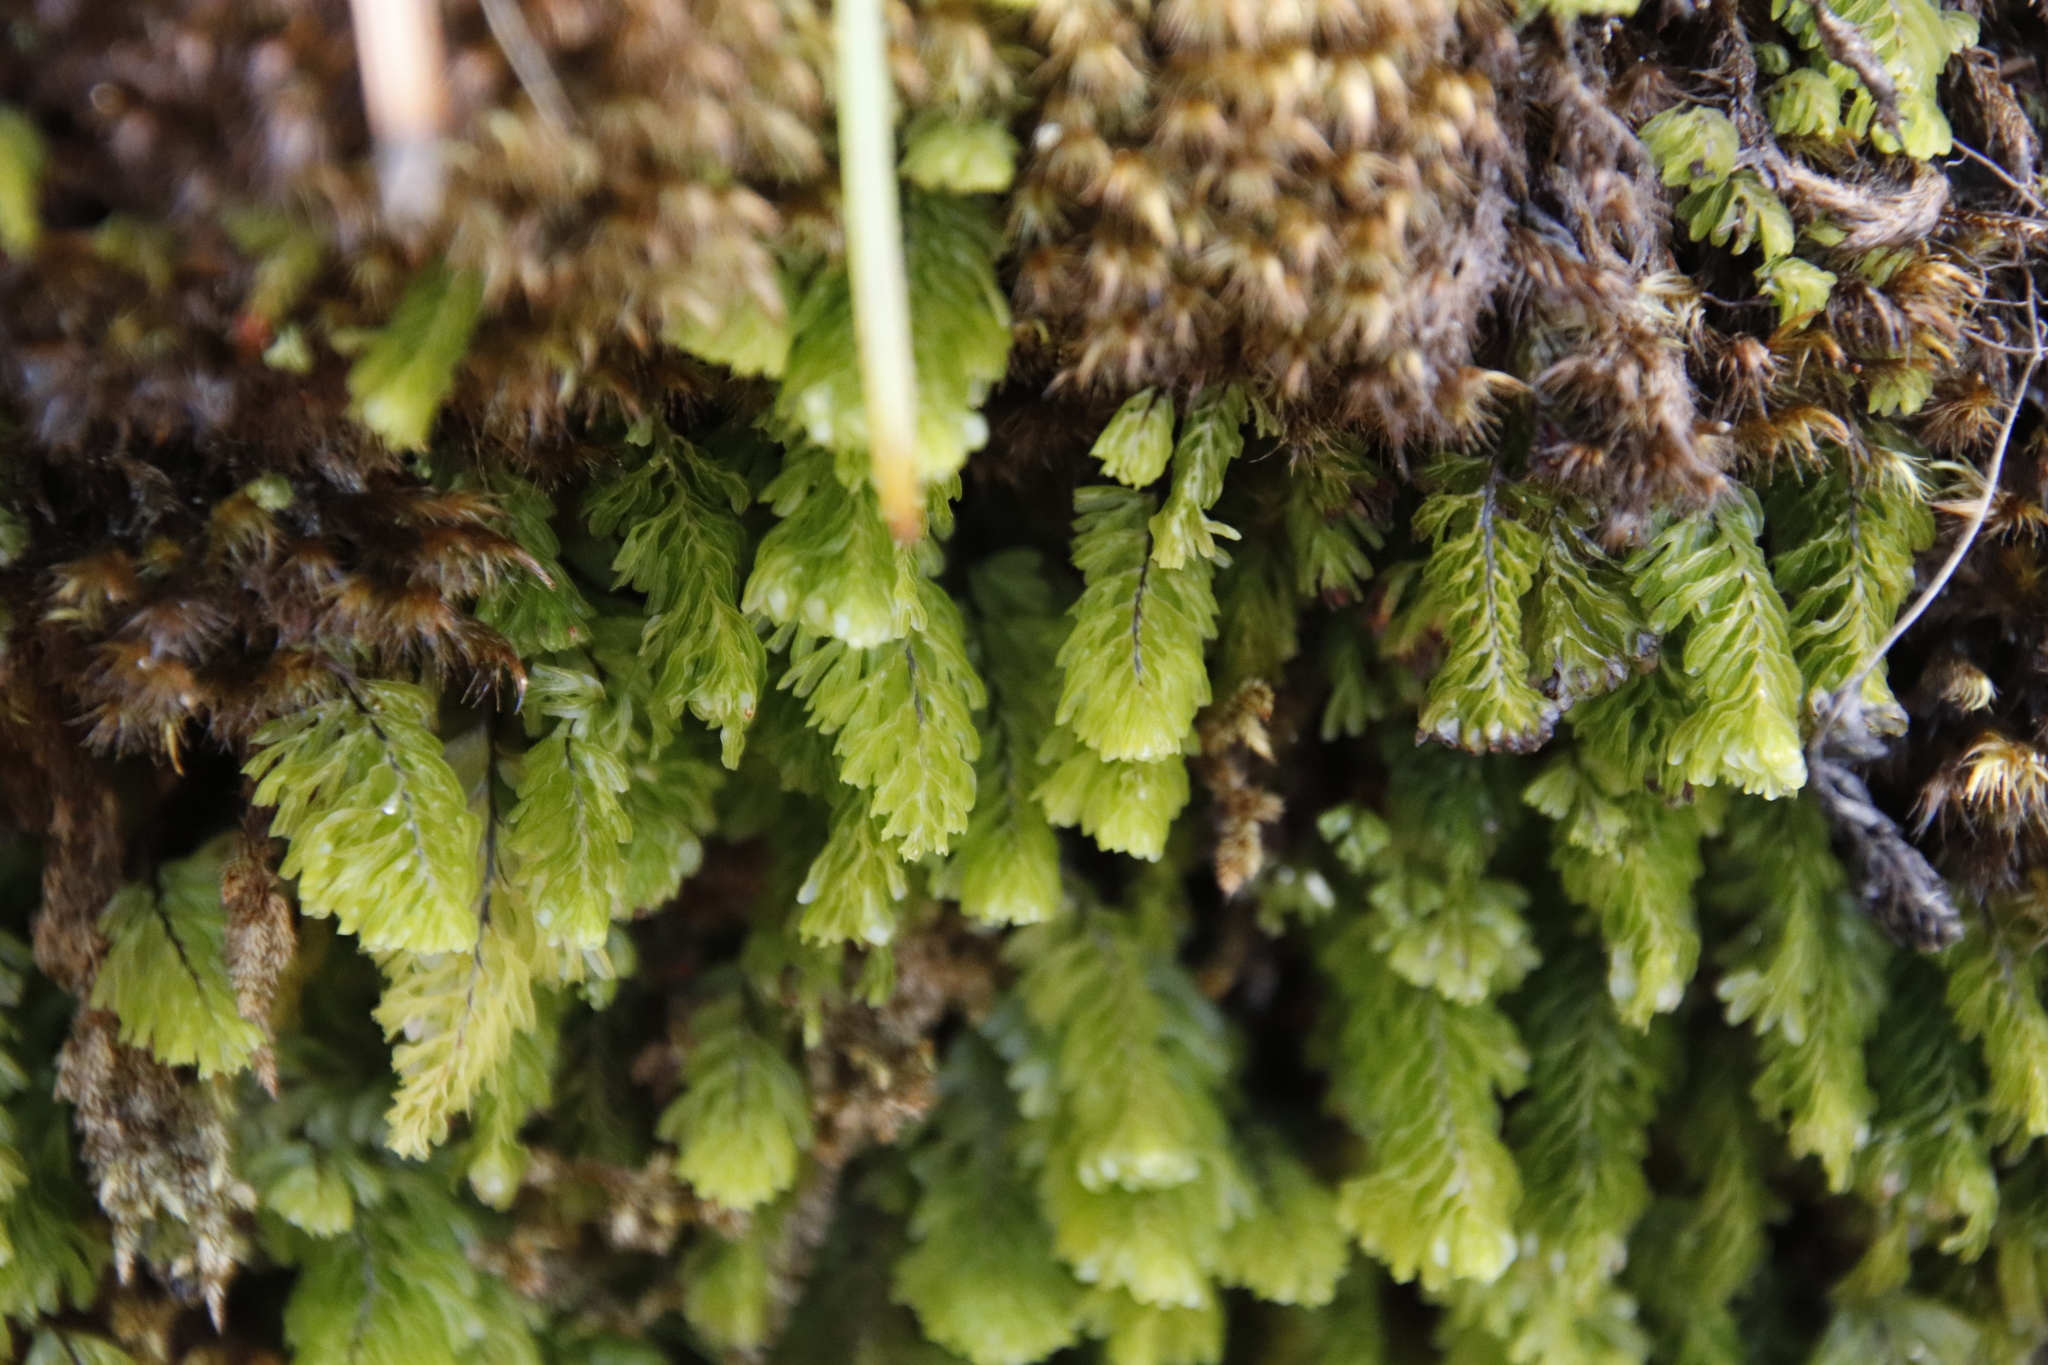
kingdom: Plantae
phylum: Tracheophyta
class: Polypodiopsida
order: Hymenophyllales
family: Hymenophyllaceae
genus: Hymenophyllum
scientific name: Hymenophyllum capense
